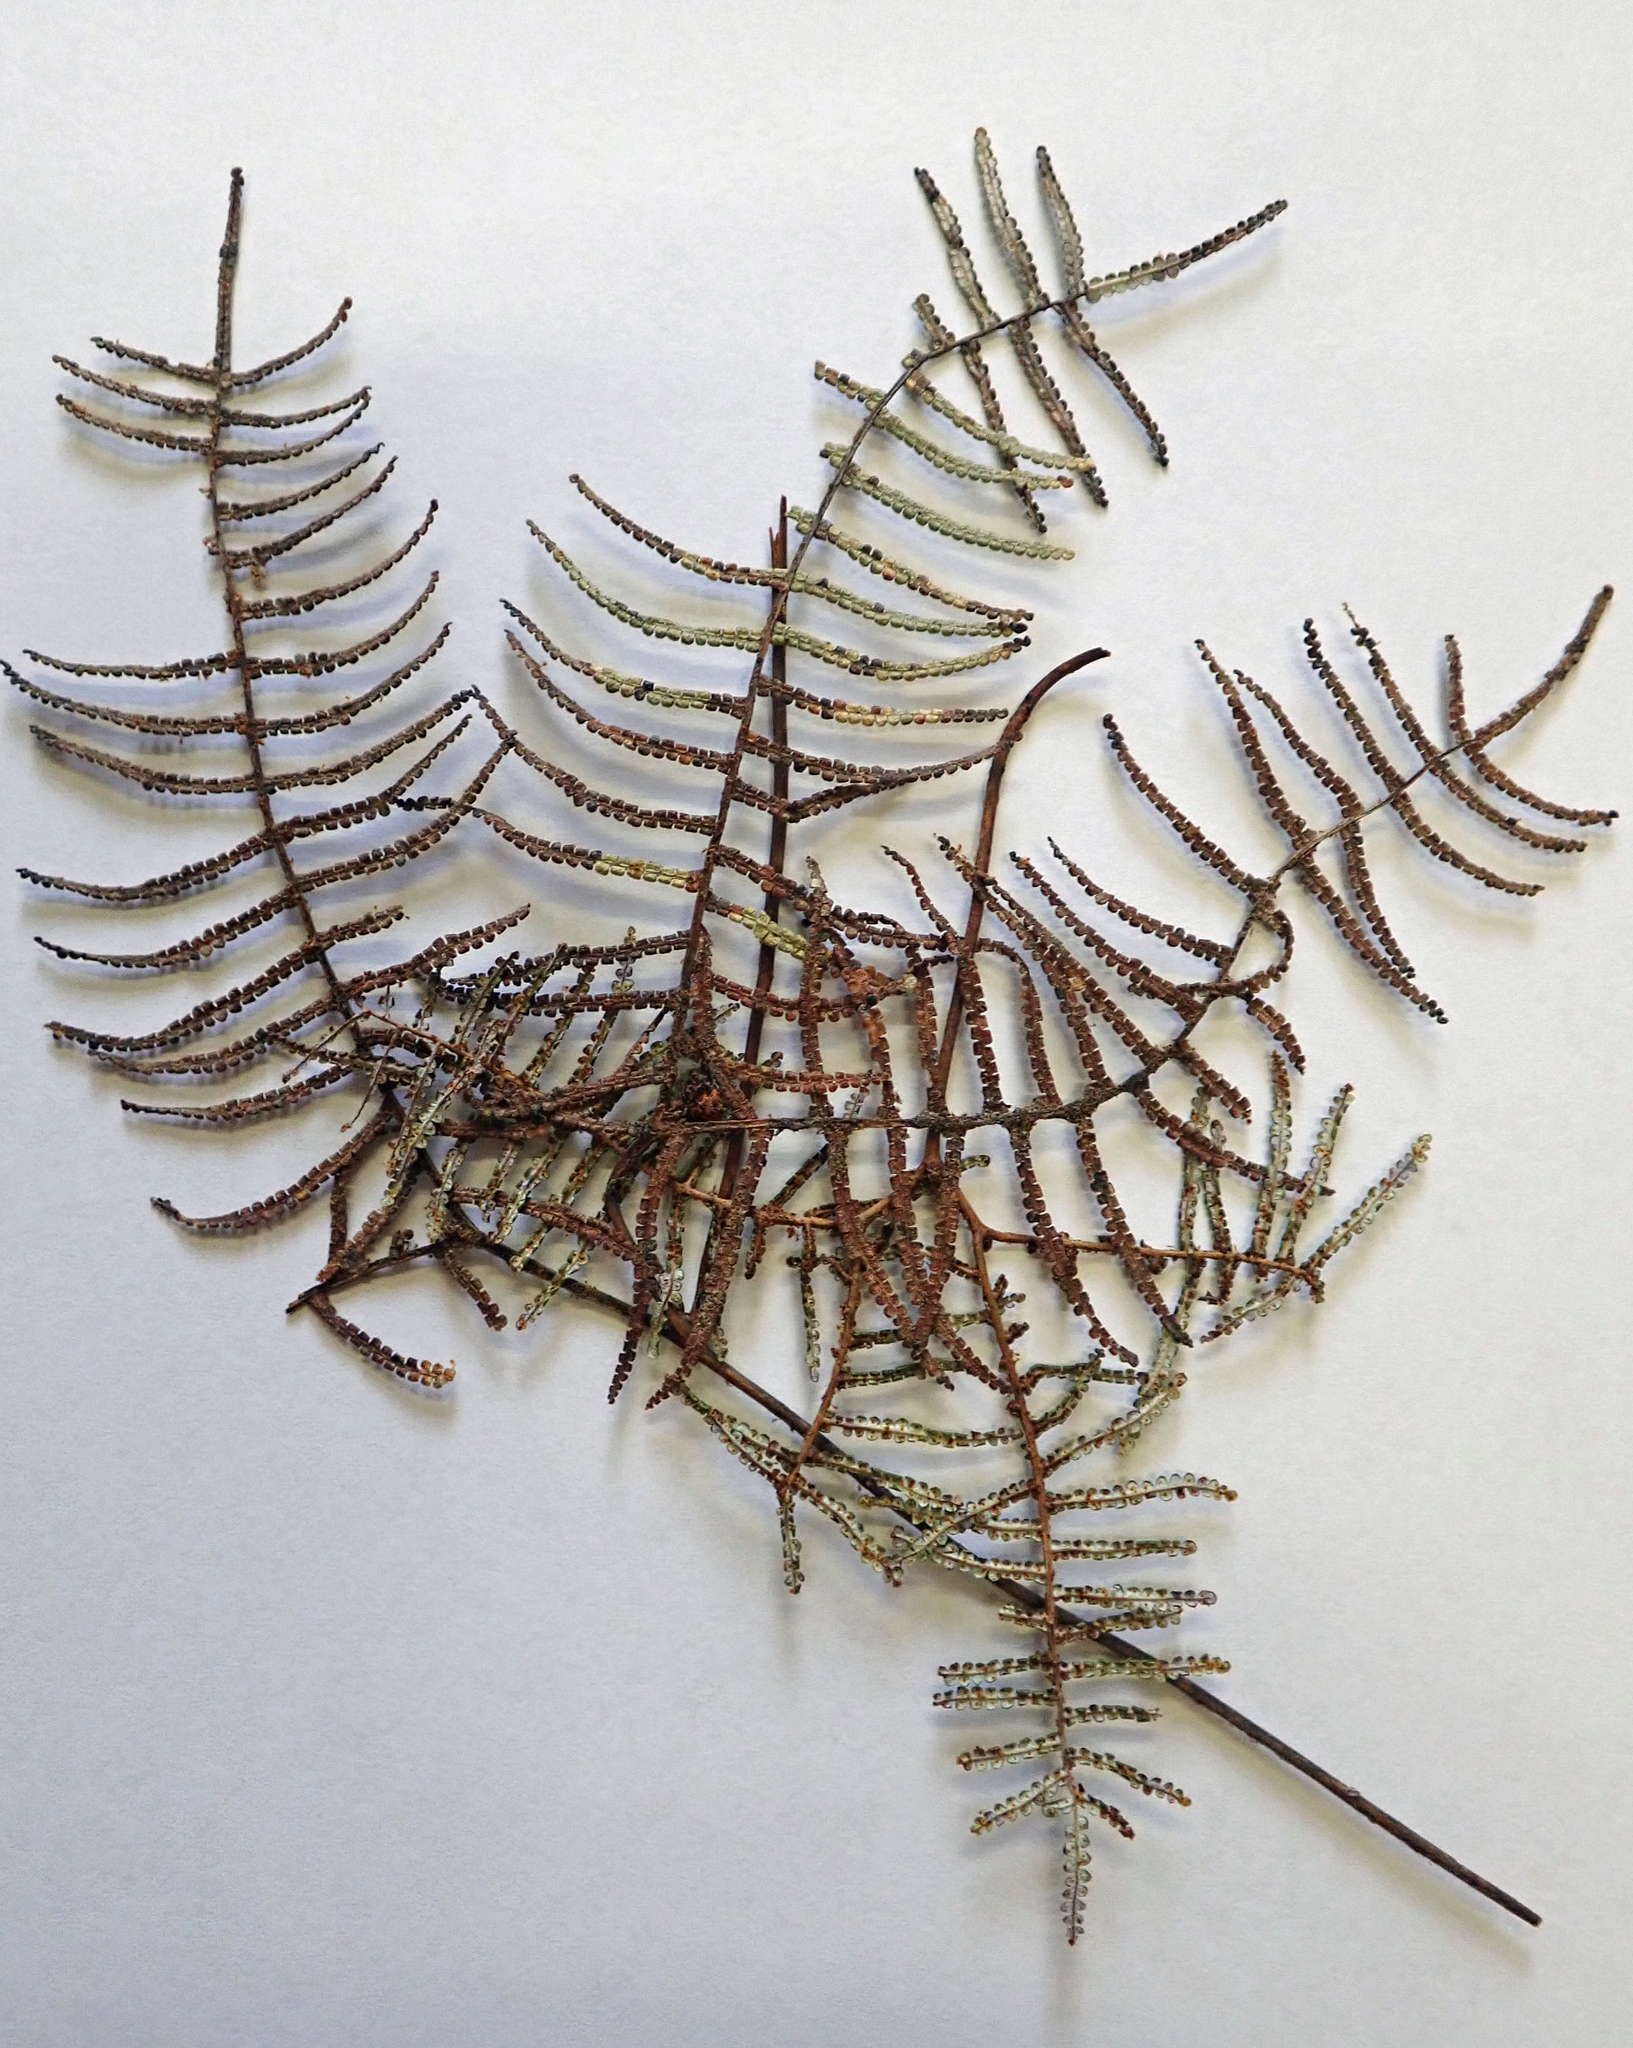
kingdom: Plantae
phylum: Tracheophyta
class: Polypodiopsida
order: Gleicheniales
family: Gleicheniaceae
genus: Gleichenia
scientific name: Gleichenia inclusisora
